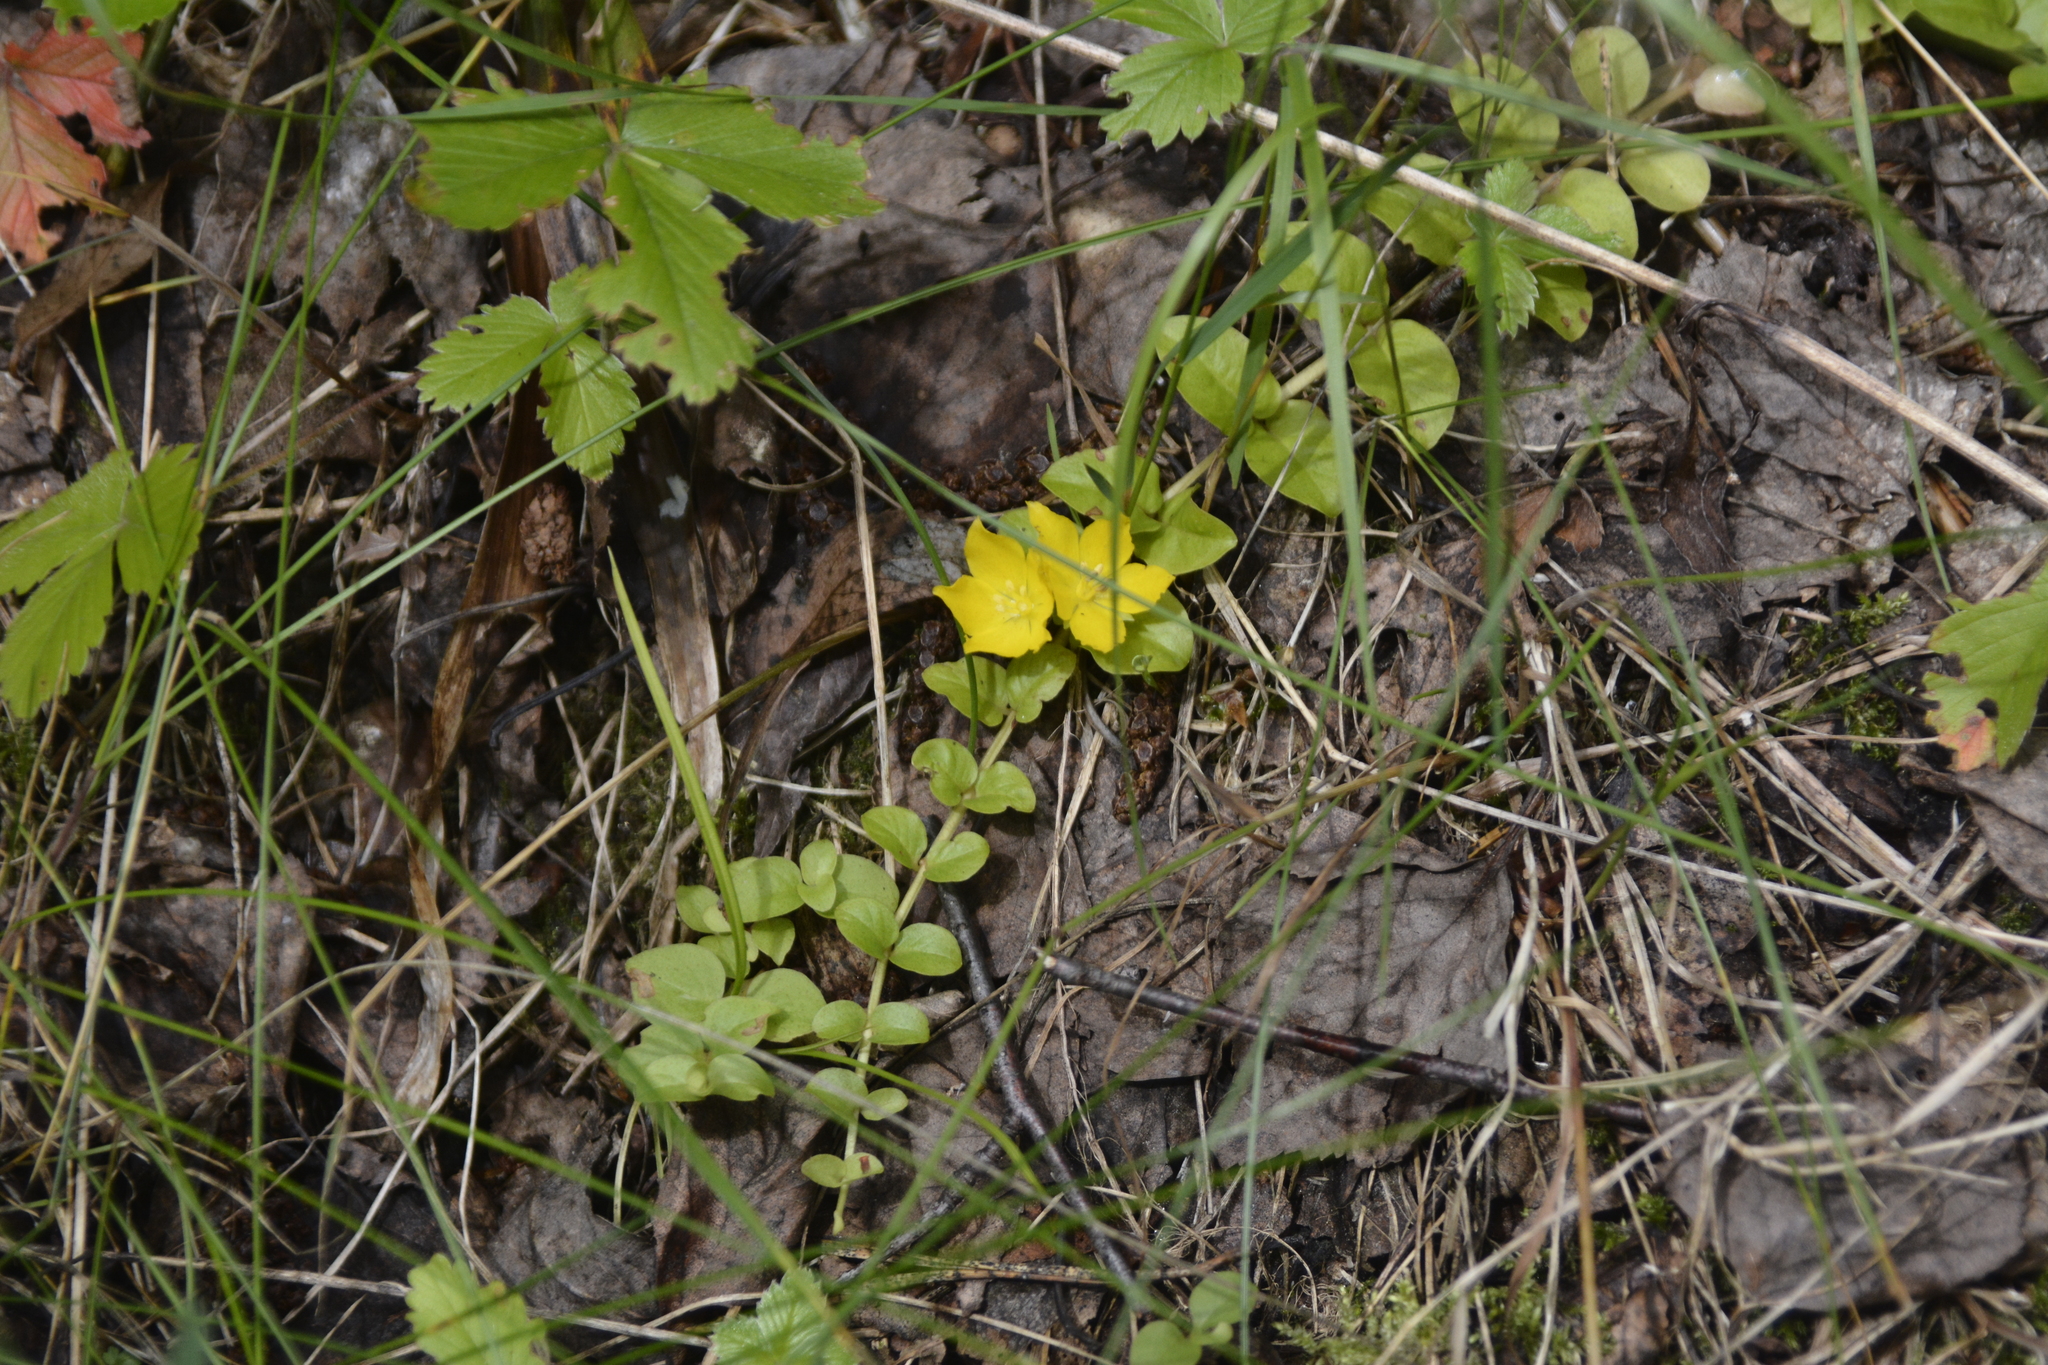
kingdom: Plantae
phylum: Tracheophyta
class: Magnoliopsida
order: Ericales
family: Primulaceae
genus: Lysimachia
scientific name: Lysimachia nummularia
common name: Moneywort
